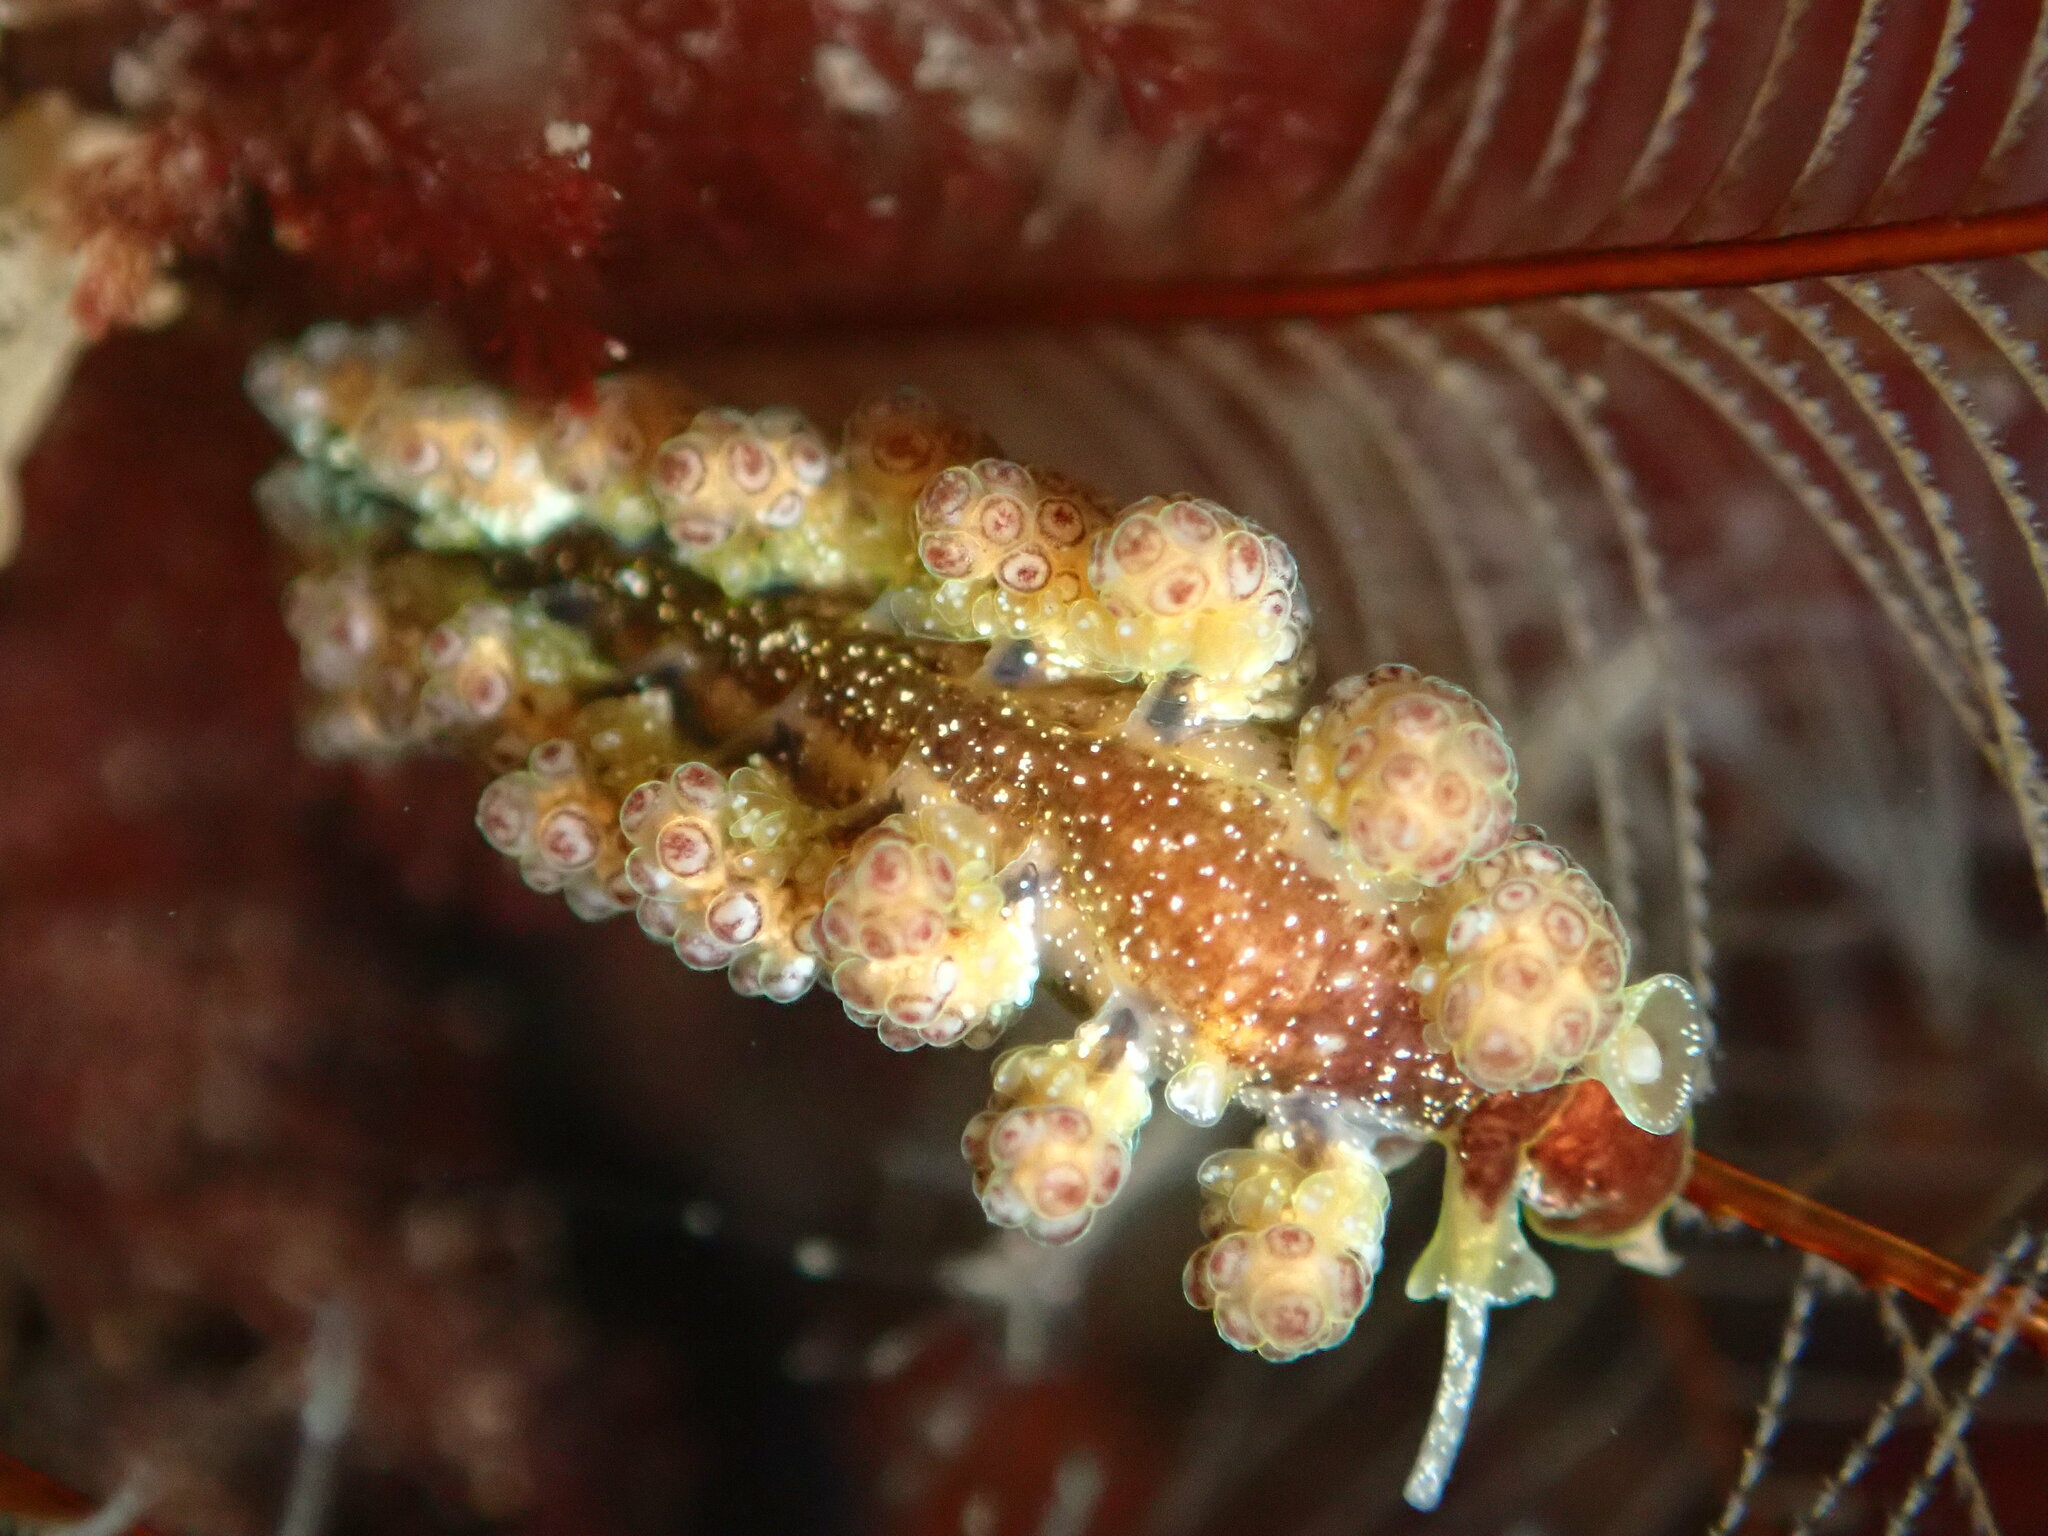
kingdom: Animalia
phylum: Mollusca
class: Gastropoda
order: Nudibranchia
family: Dotidae
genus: Doto
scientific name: Doto lancei
